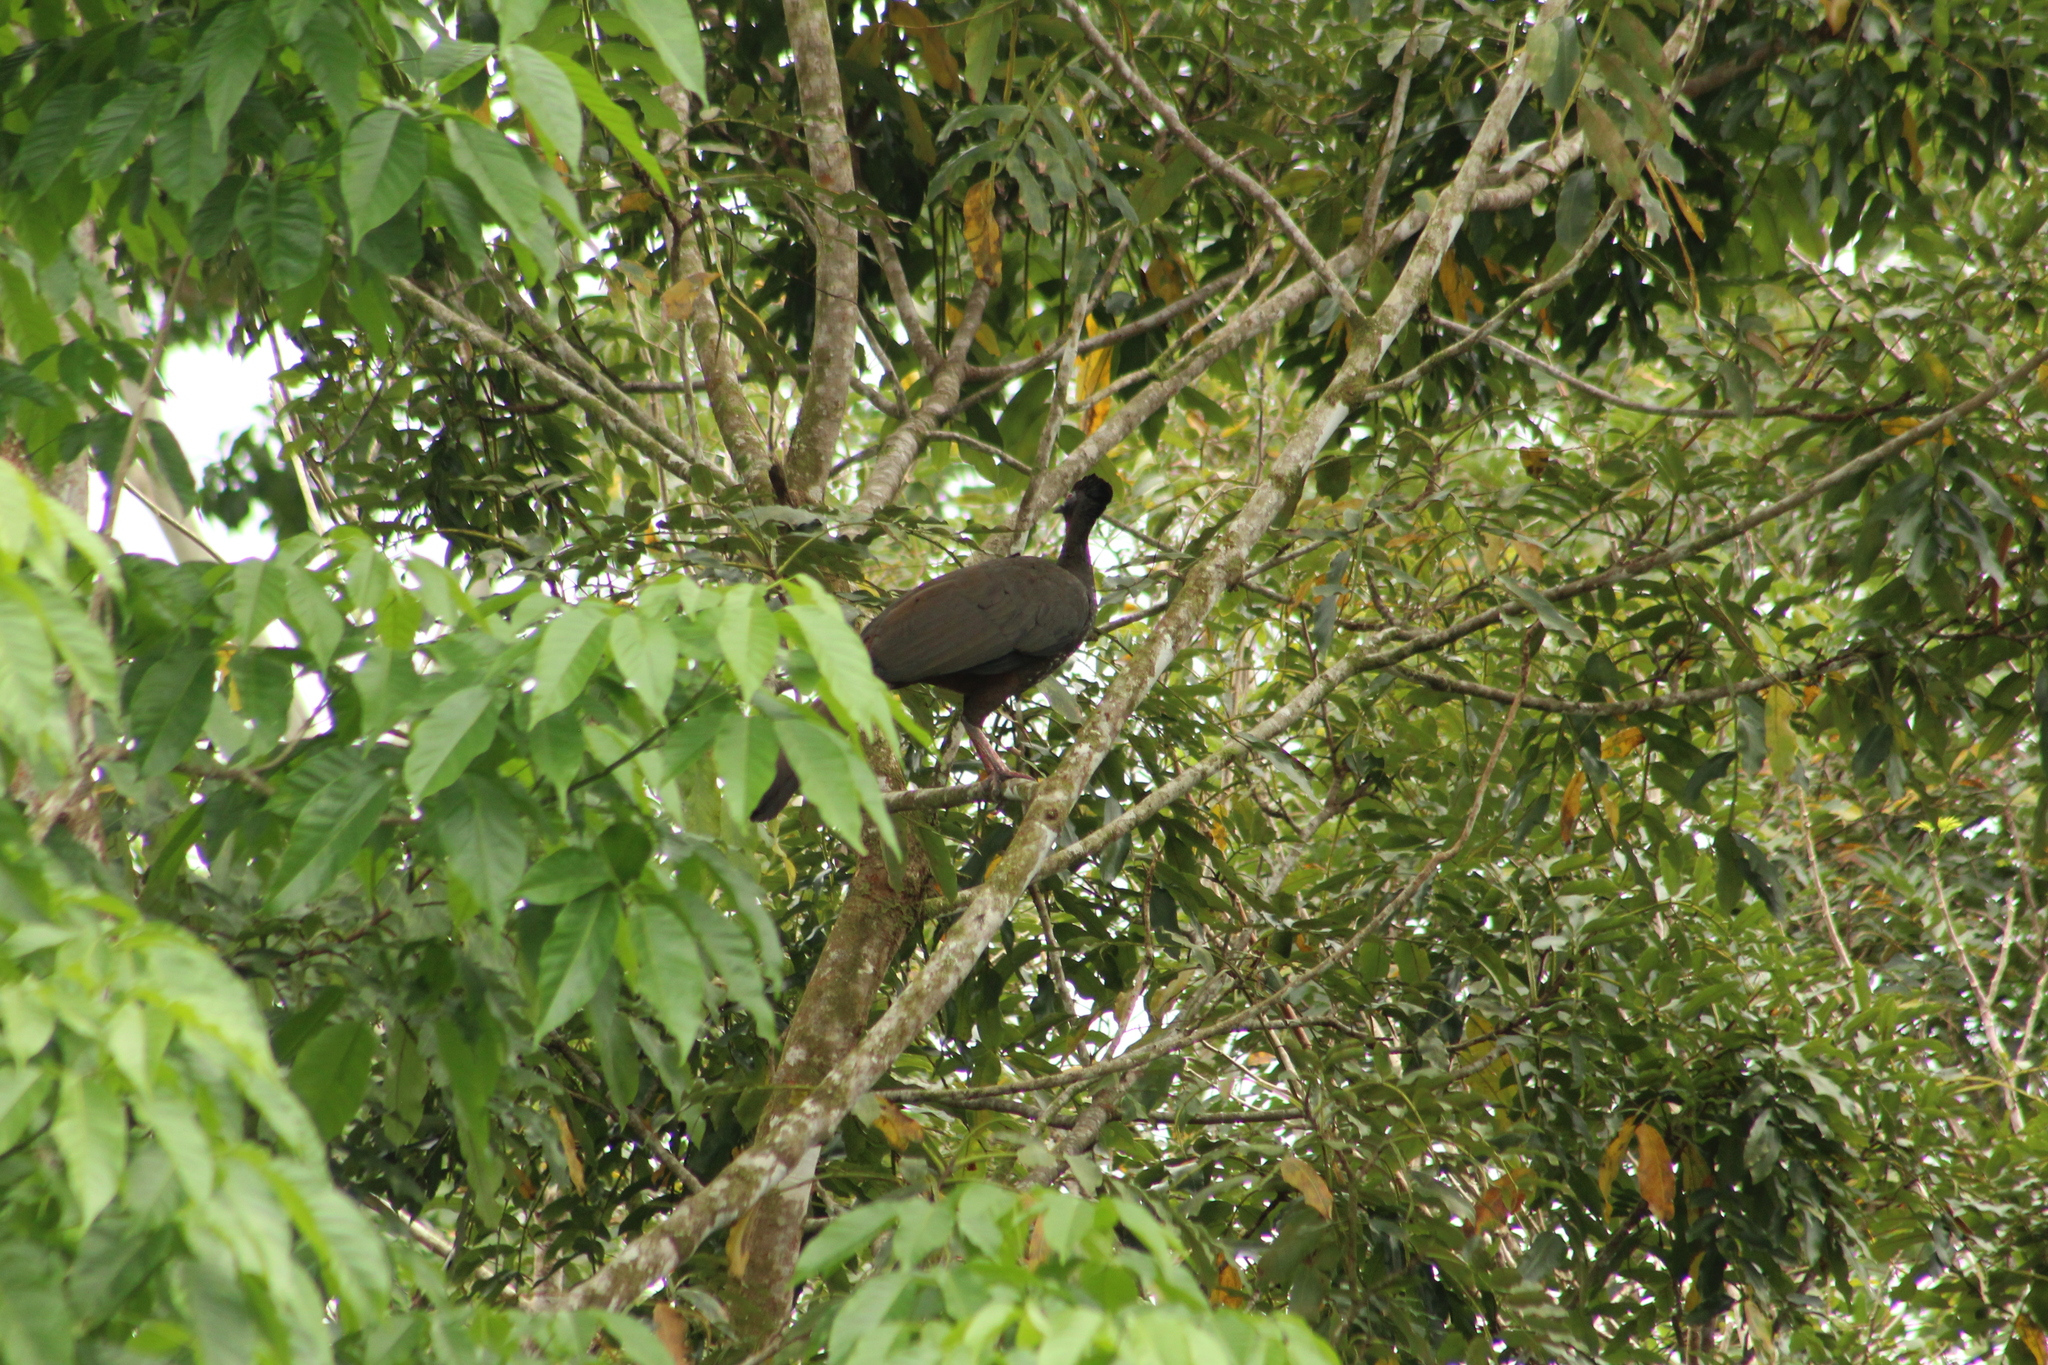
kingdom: Animalia
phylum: Chordata
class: Aves
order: Galliformes
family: Cracidae
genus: Penelope
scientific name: Penelope purpurascens
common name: Crested guan
